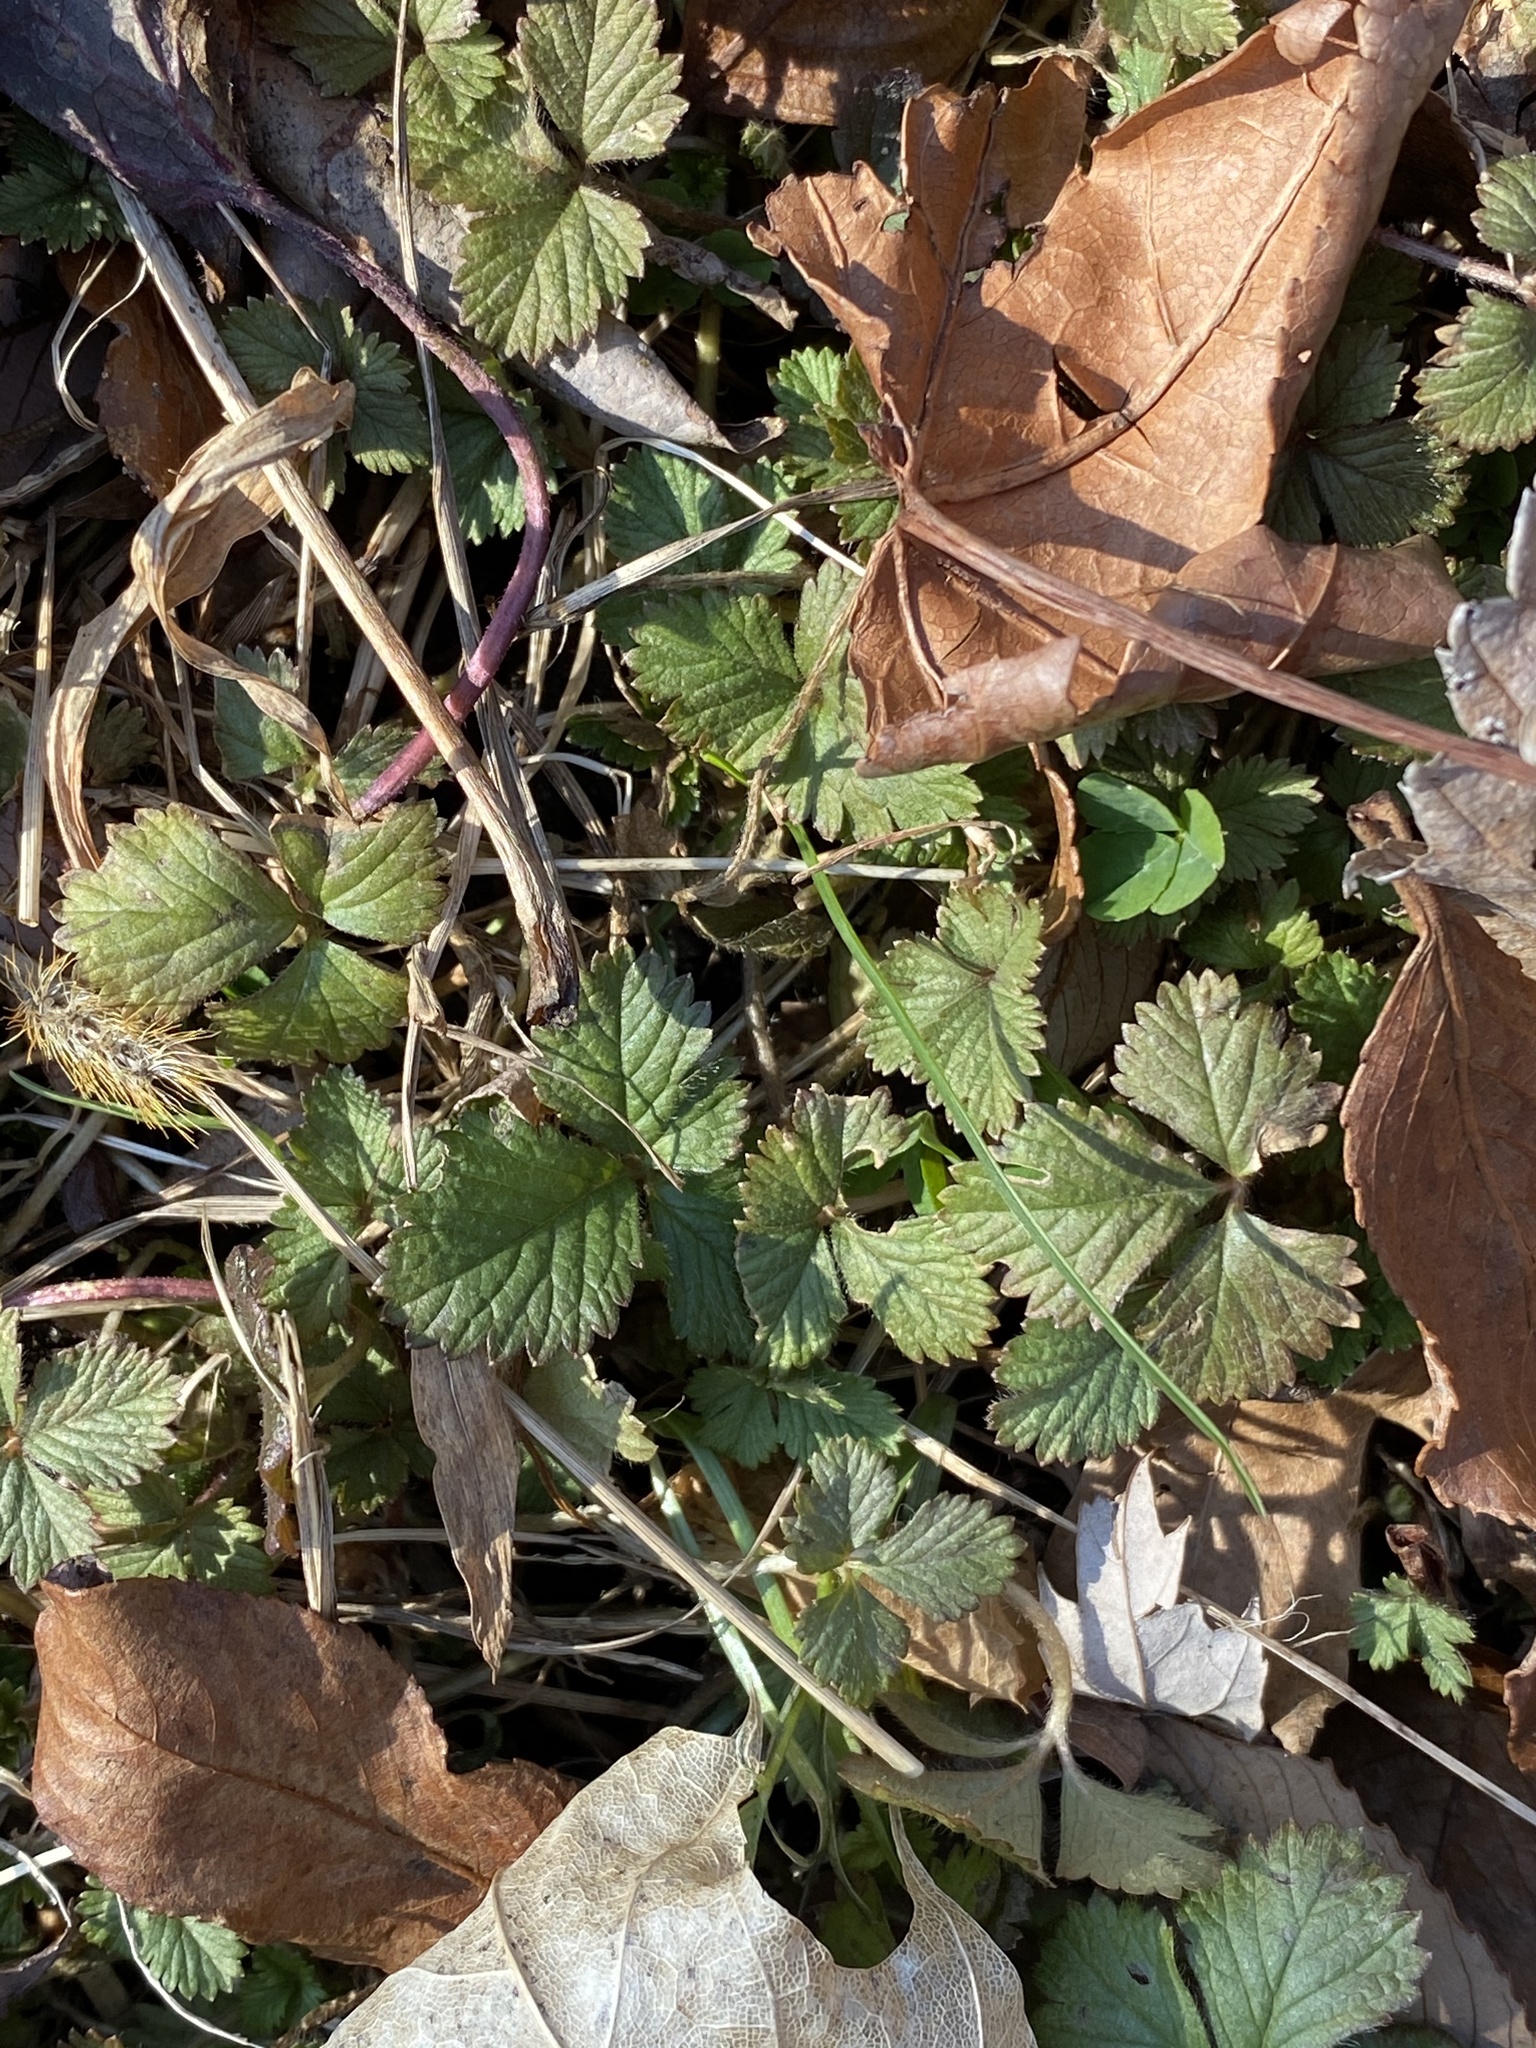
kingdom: Plantae
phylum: Tracheophyta
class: Magnoliopsida
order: Rosales
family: Rosaceae
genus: Potentilla
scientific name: Potentilla indica
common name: Yellow-flowered strawberry
